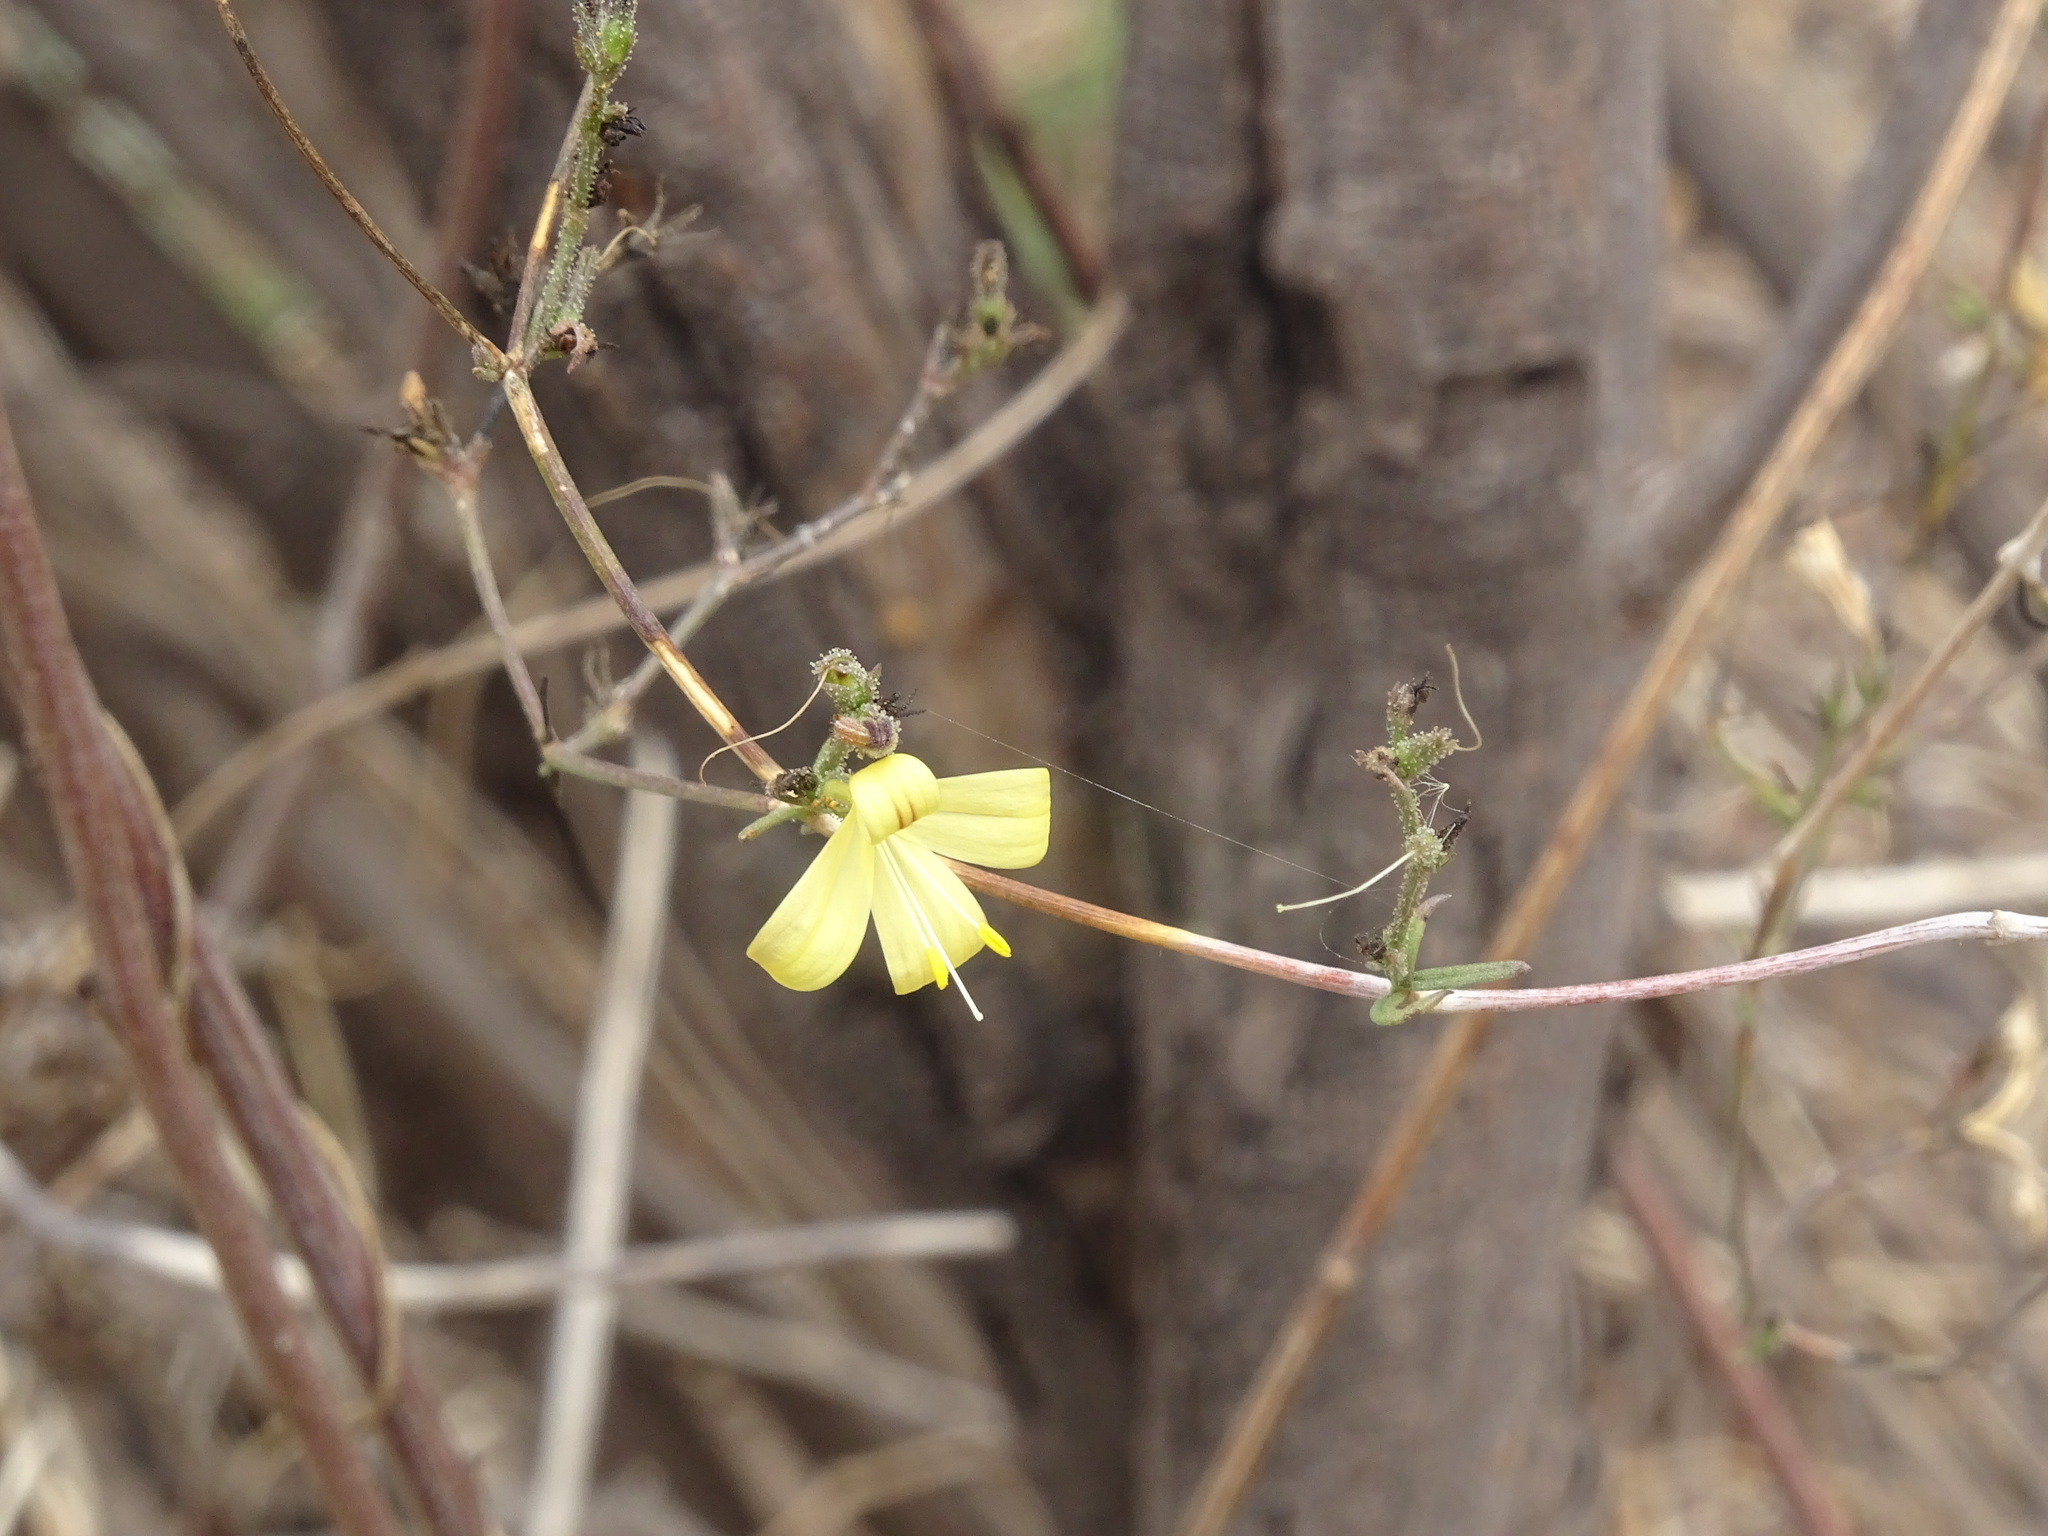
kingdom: Plantae
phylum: Tracheophyta
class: Magnoliopsida
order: Lamiales
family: Acanthaceae
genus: Carlowrightia
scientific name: Carlowrightia pectinata
